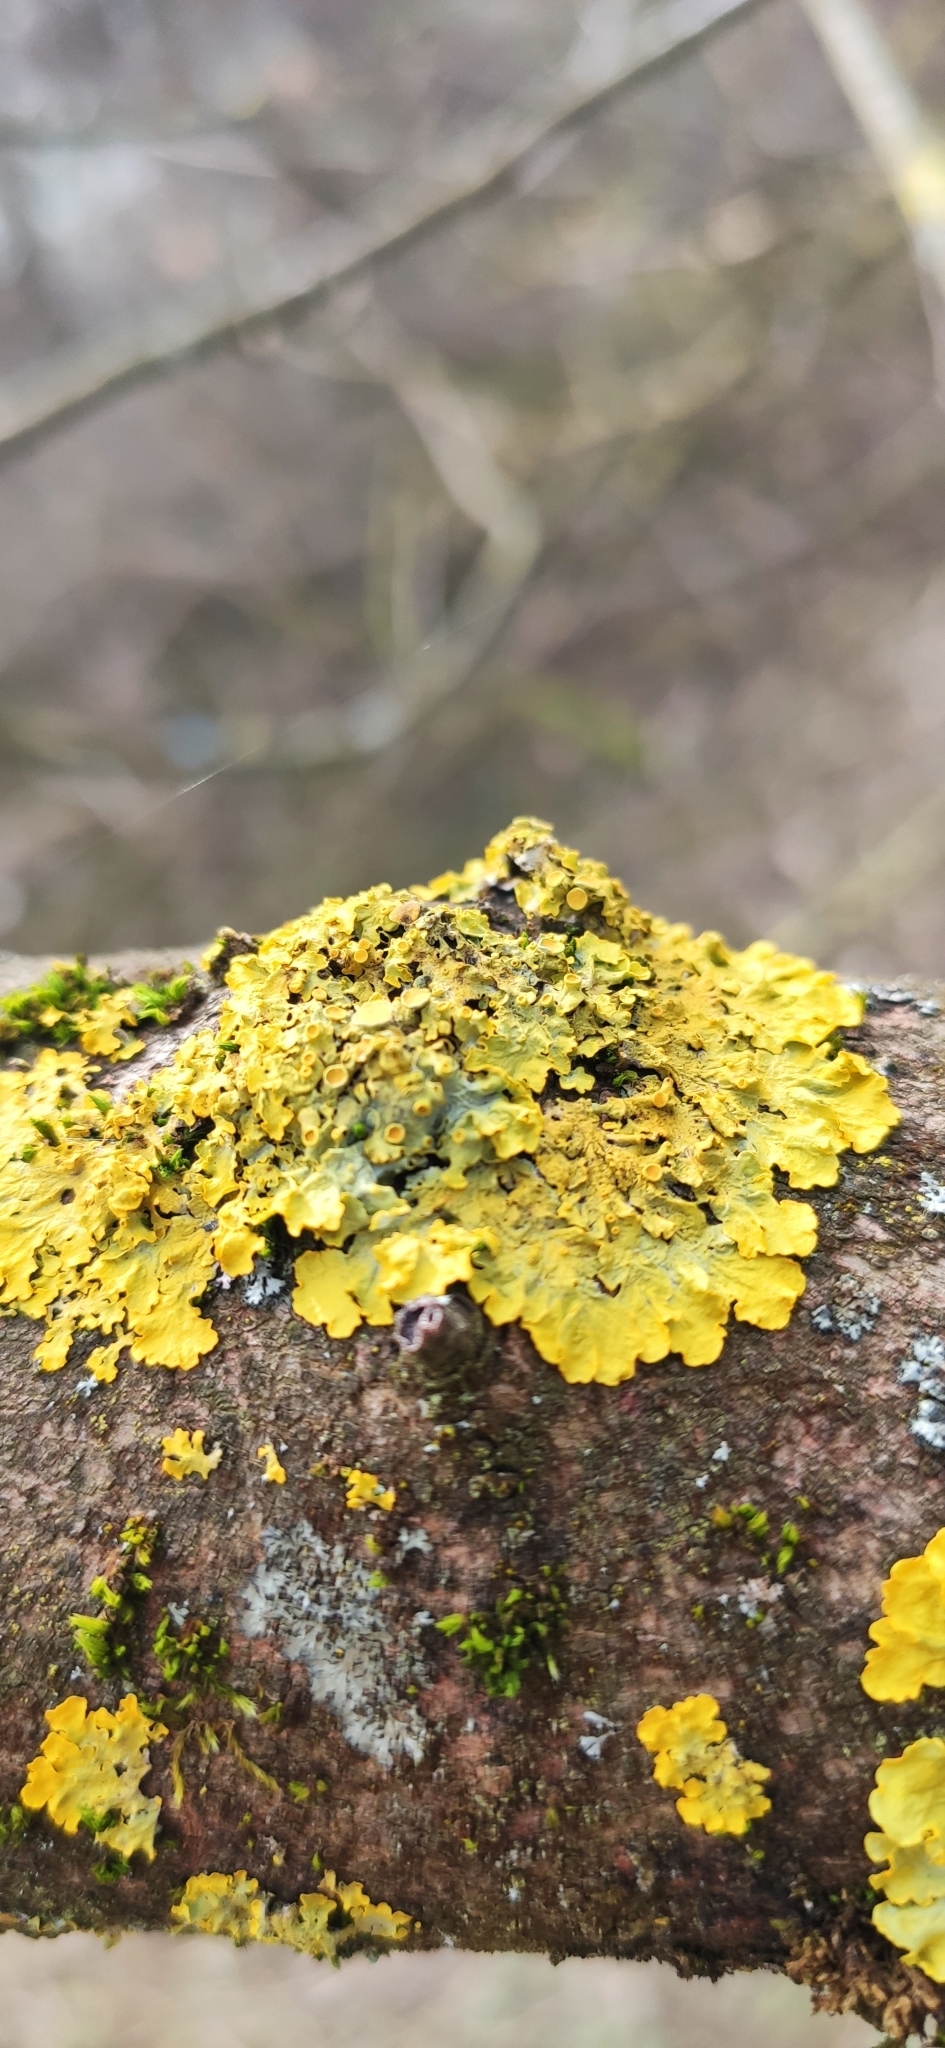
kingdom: Fungi
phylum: Ascomycota
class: Lecanoromycetes
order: Teloschistales
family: Teloschistaceae
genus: Xanthoria
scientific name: Xanthoria parietina
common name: Common orange lichen
